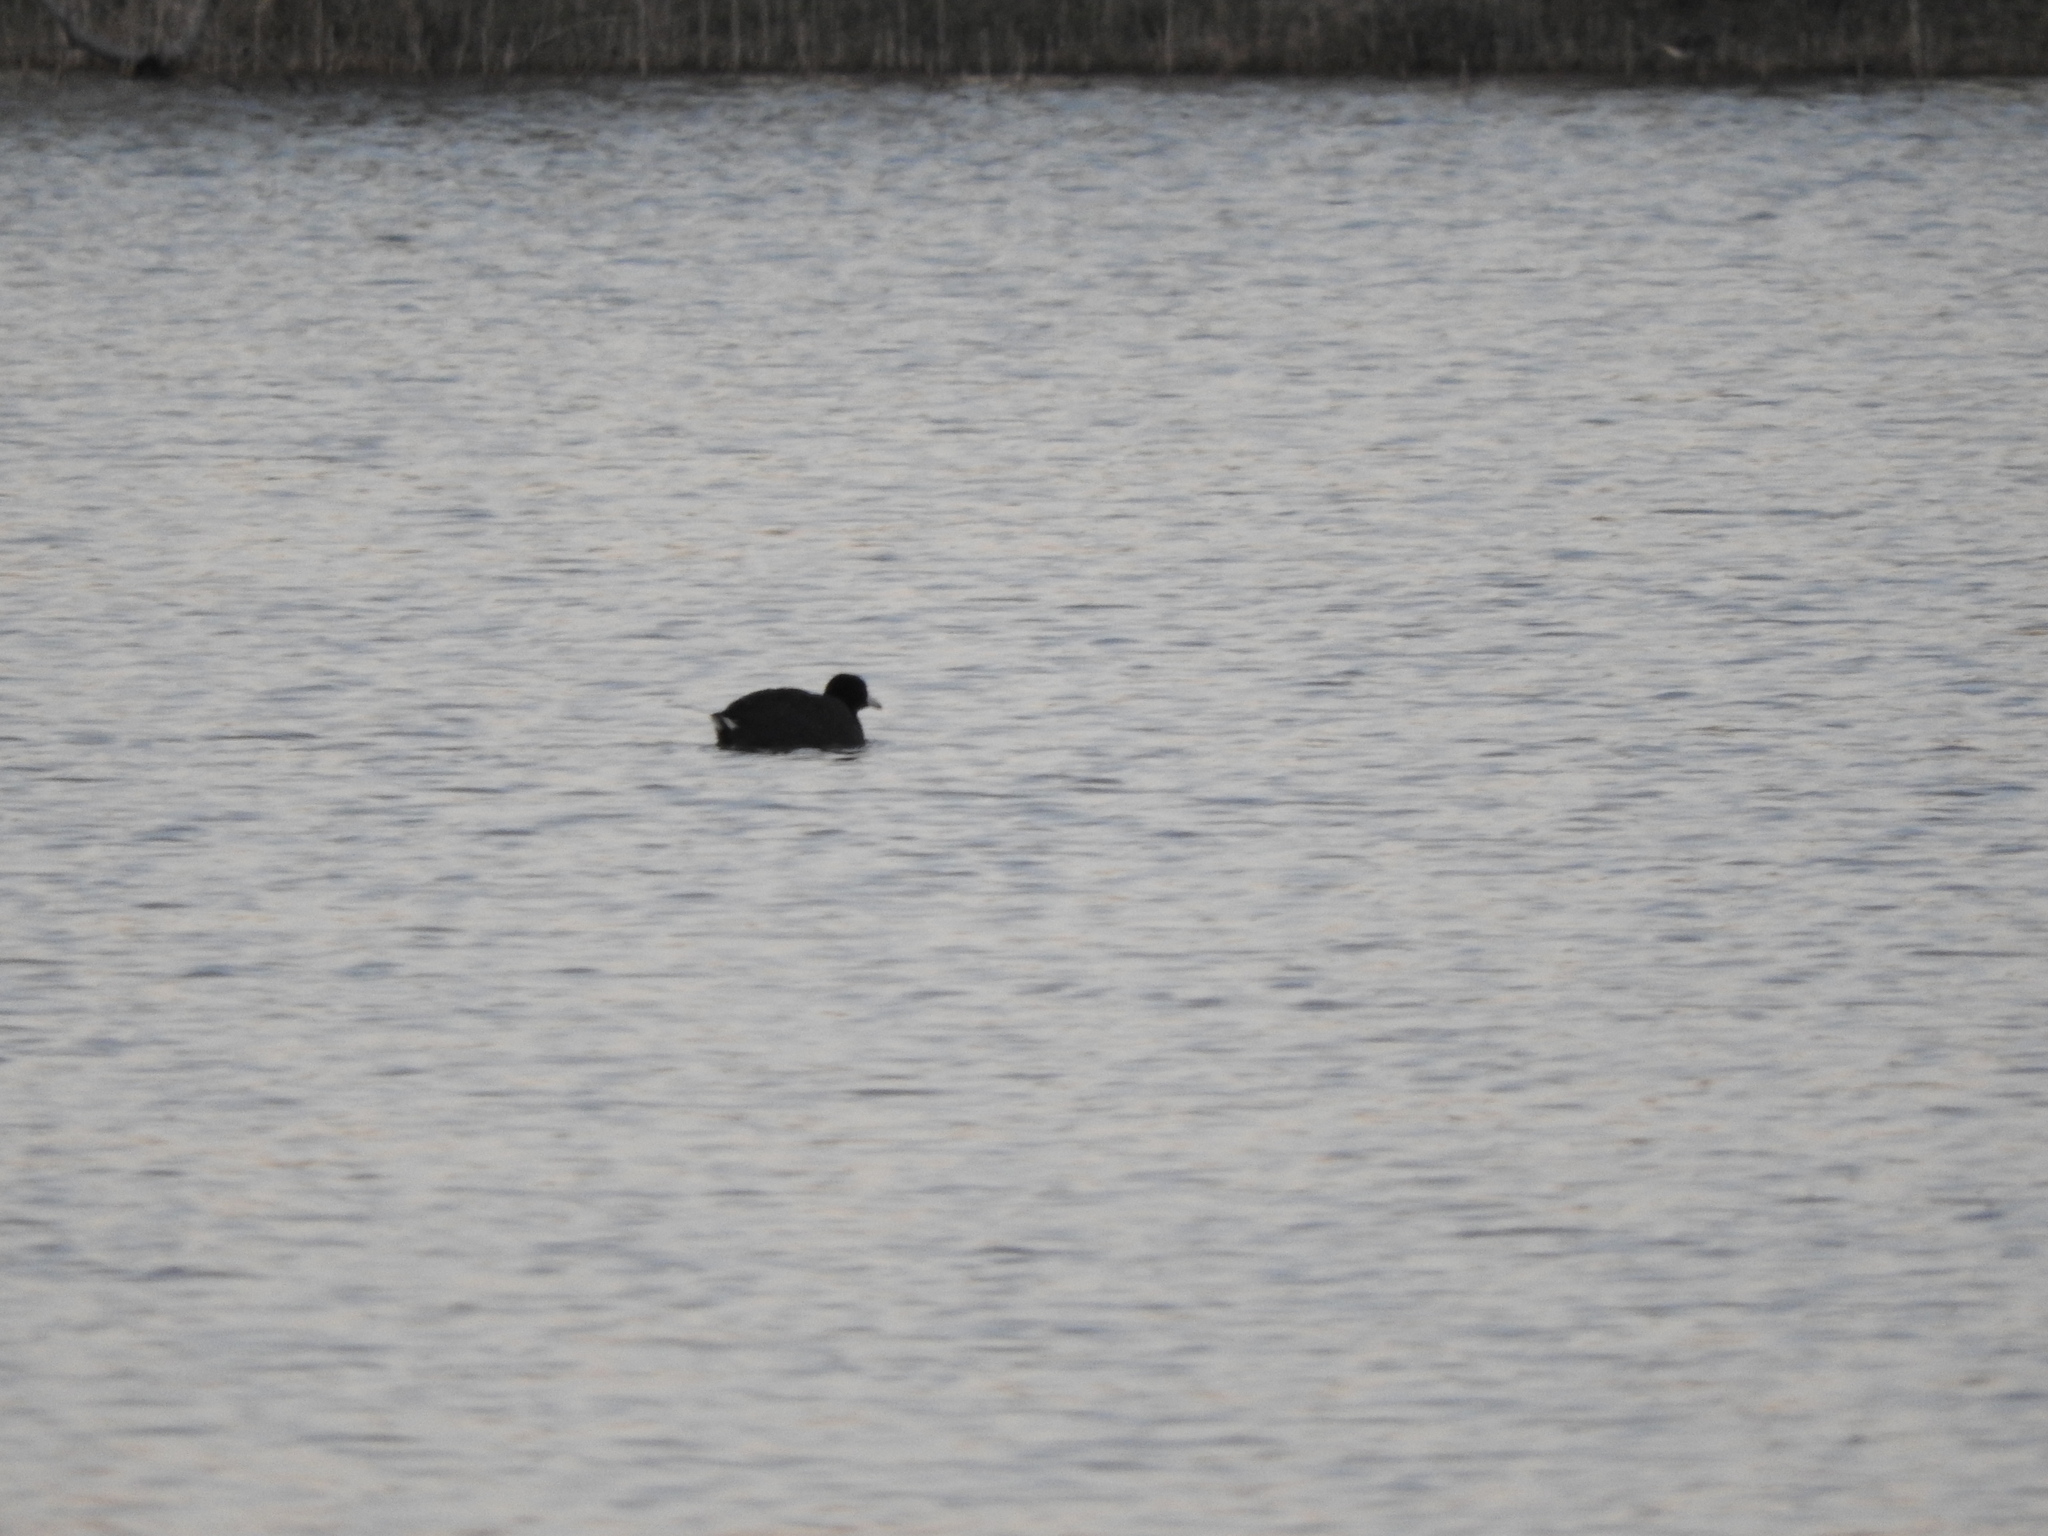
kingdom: Animalia
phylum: Chordata
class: Aves
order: Gruiformes
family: Rallidae
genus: Fulica
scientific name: Fulica americana
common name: American coot
